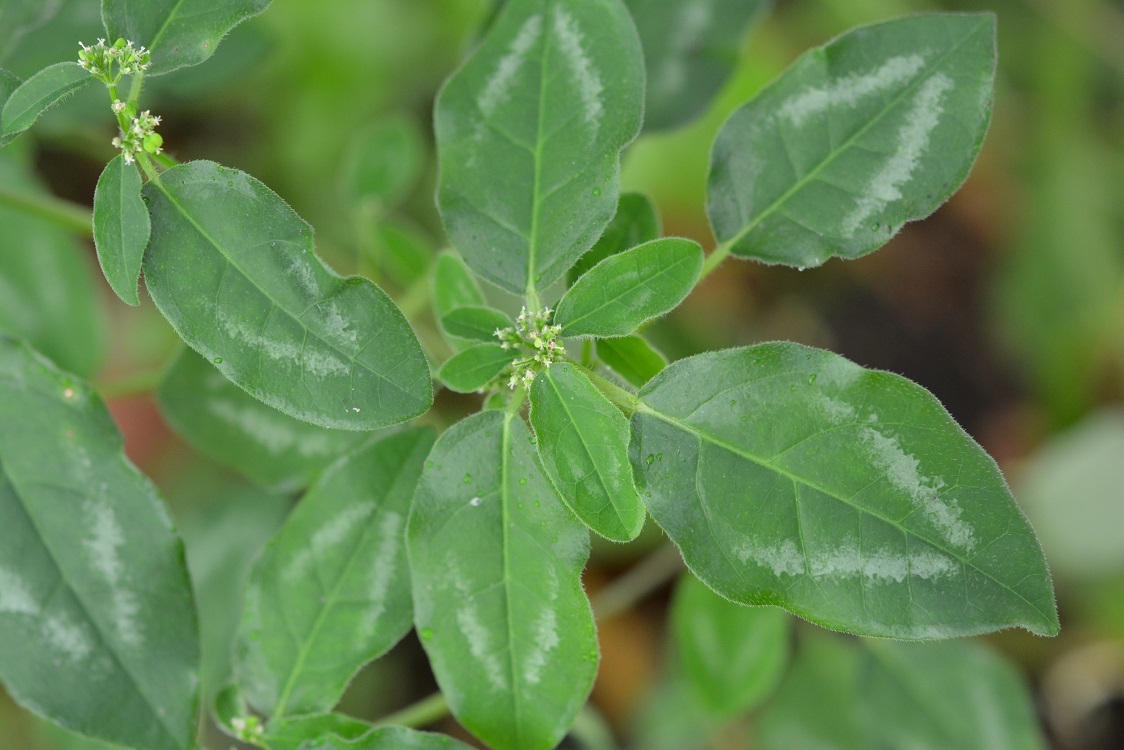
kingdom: Plantae
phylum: Tracheophyta
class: Magnoliopsida
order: Malpighiales
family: Euphorbiaceae
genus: Euphorbia
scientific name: Euphorbia graminea
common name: Grassleaf spurge
